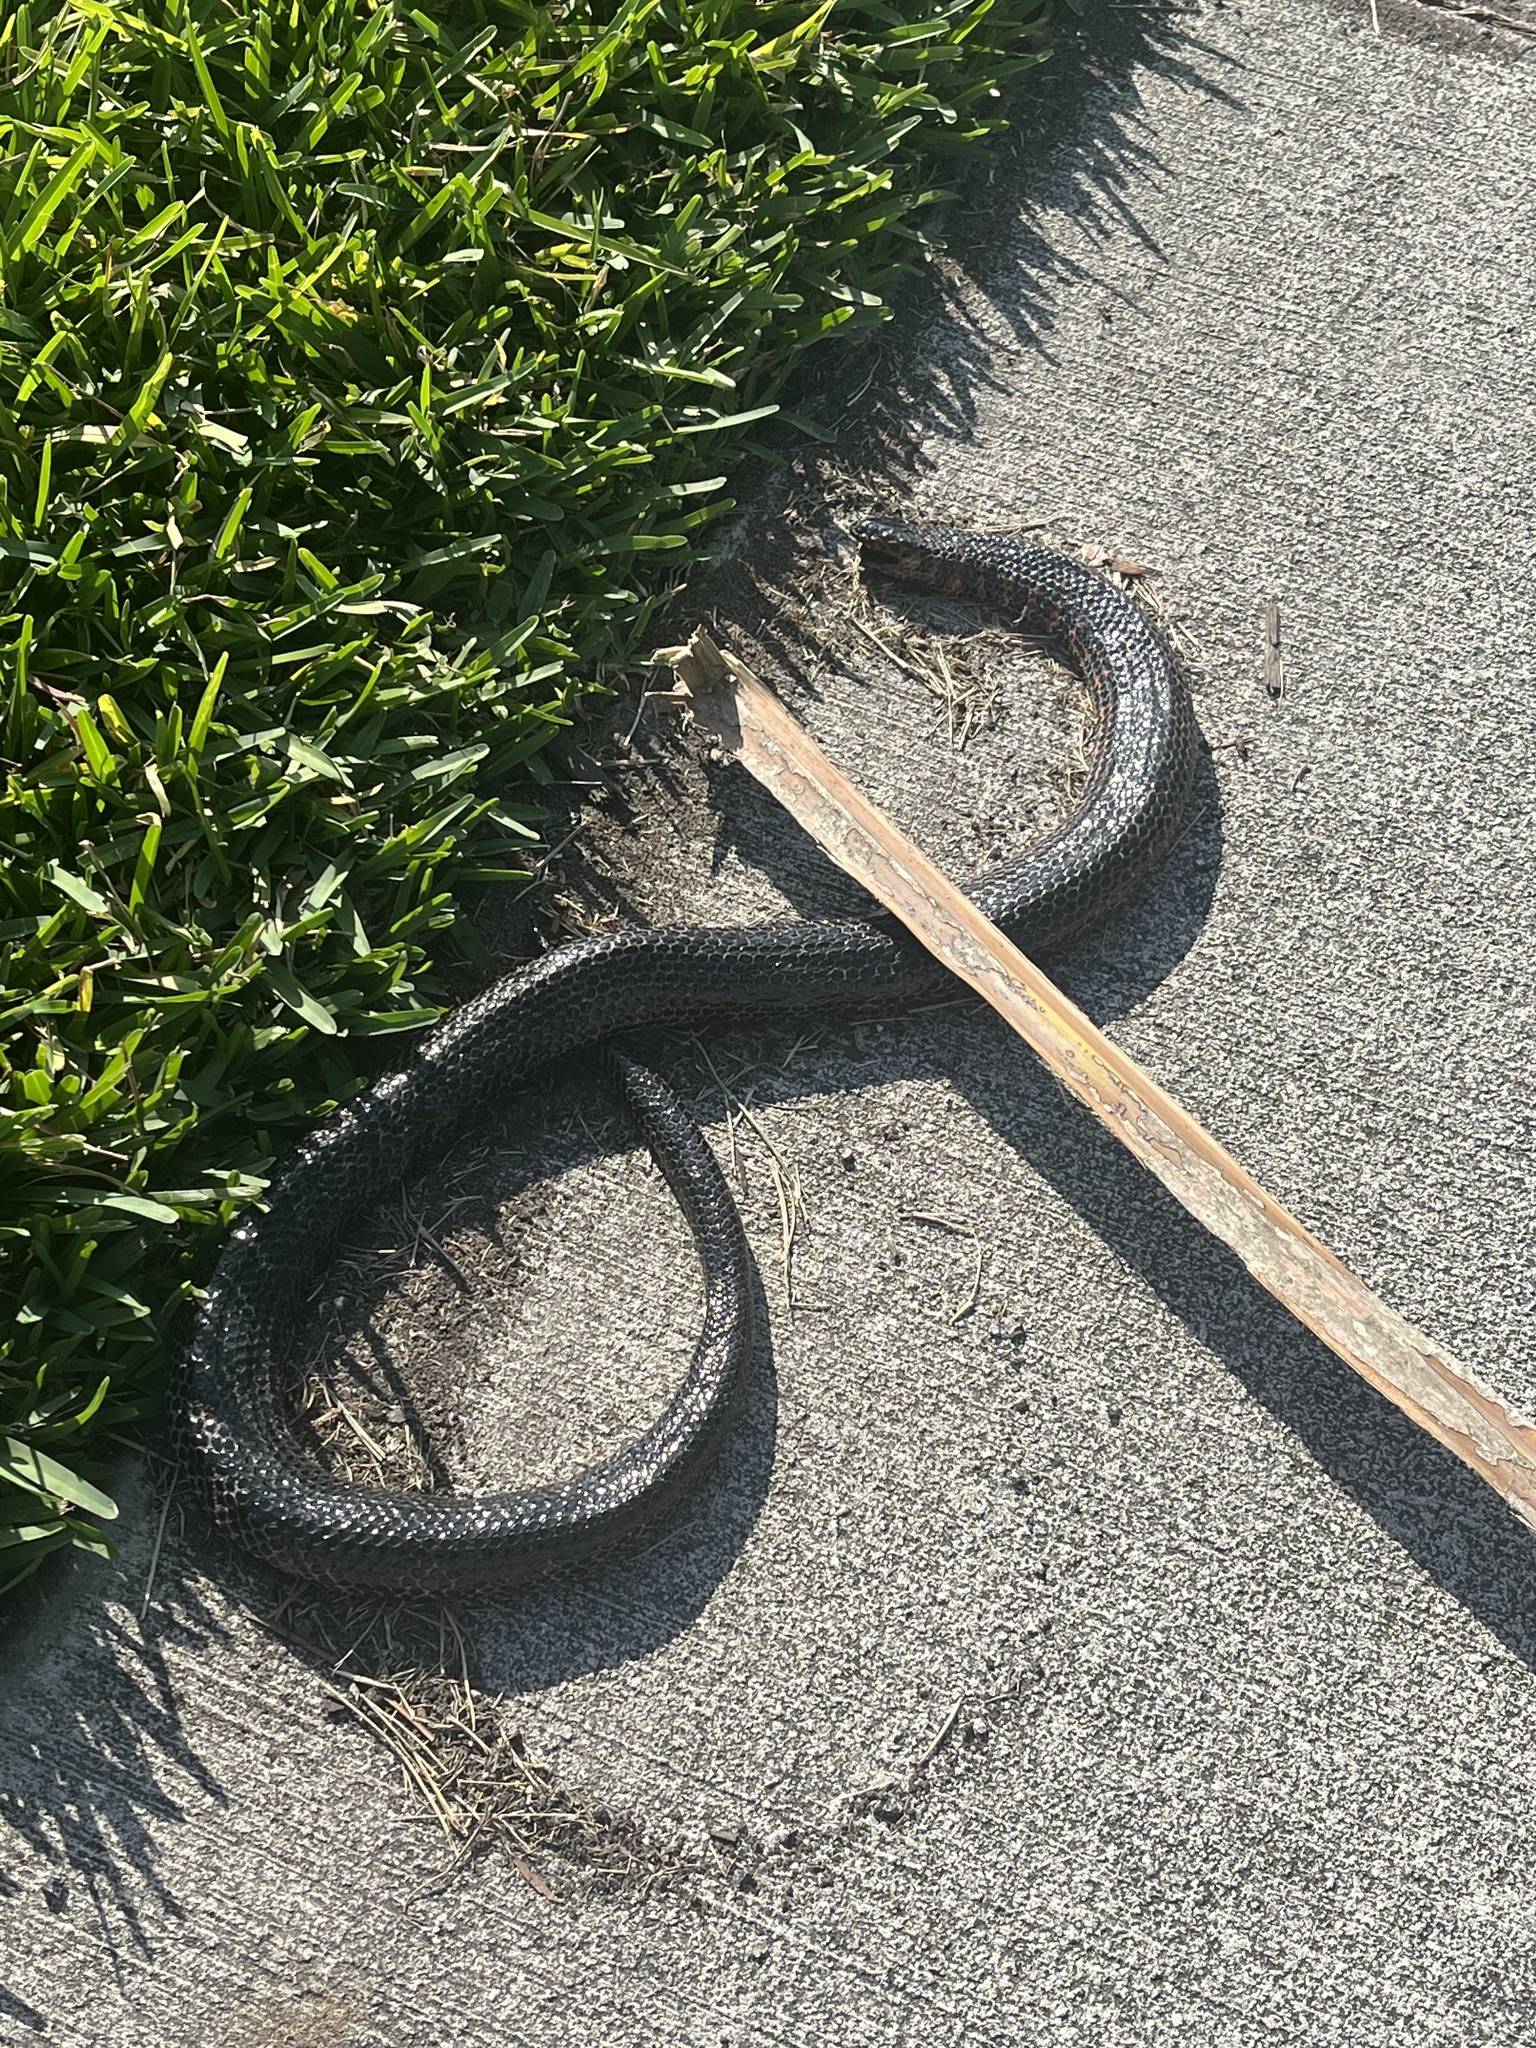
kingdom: Animalia
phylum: Chordata
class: Squamata
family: Colubridae
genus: Farancia
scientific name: Farancia abacura
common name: Mud snake
